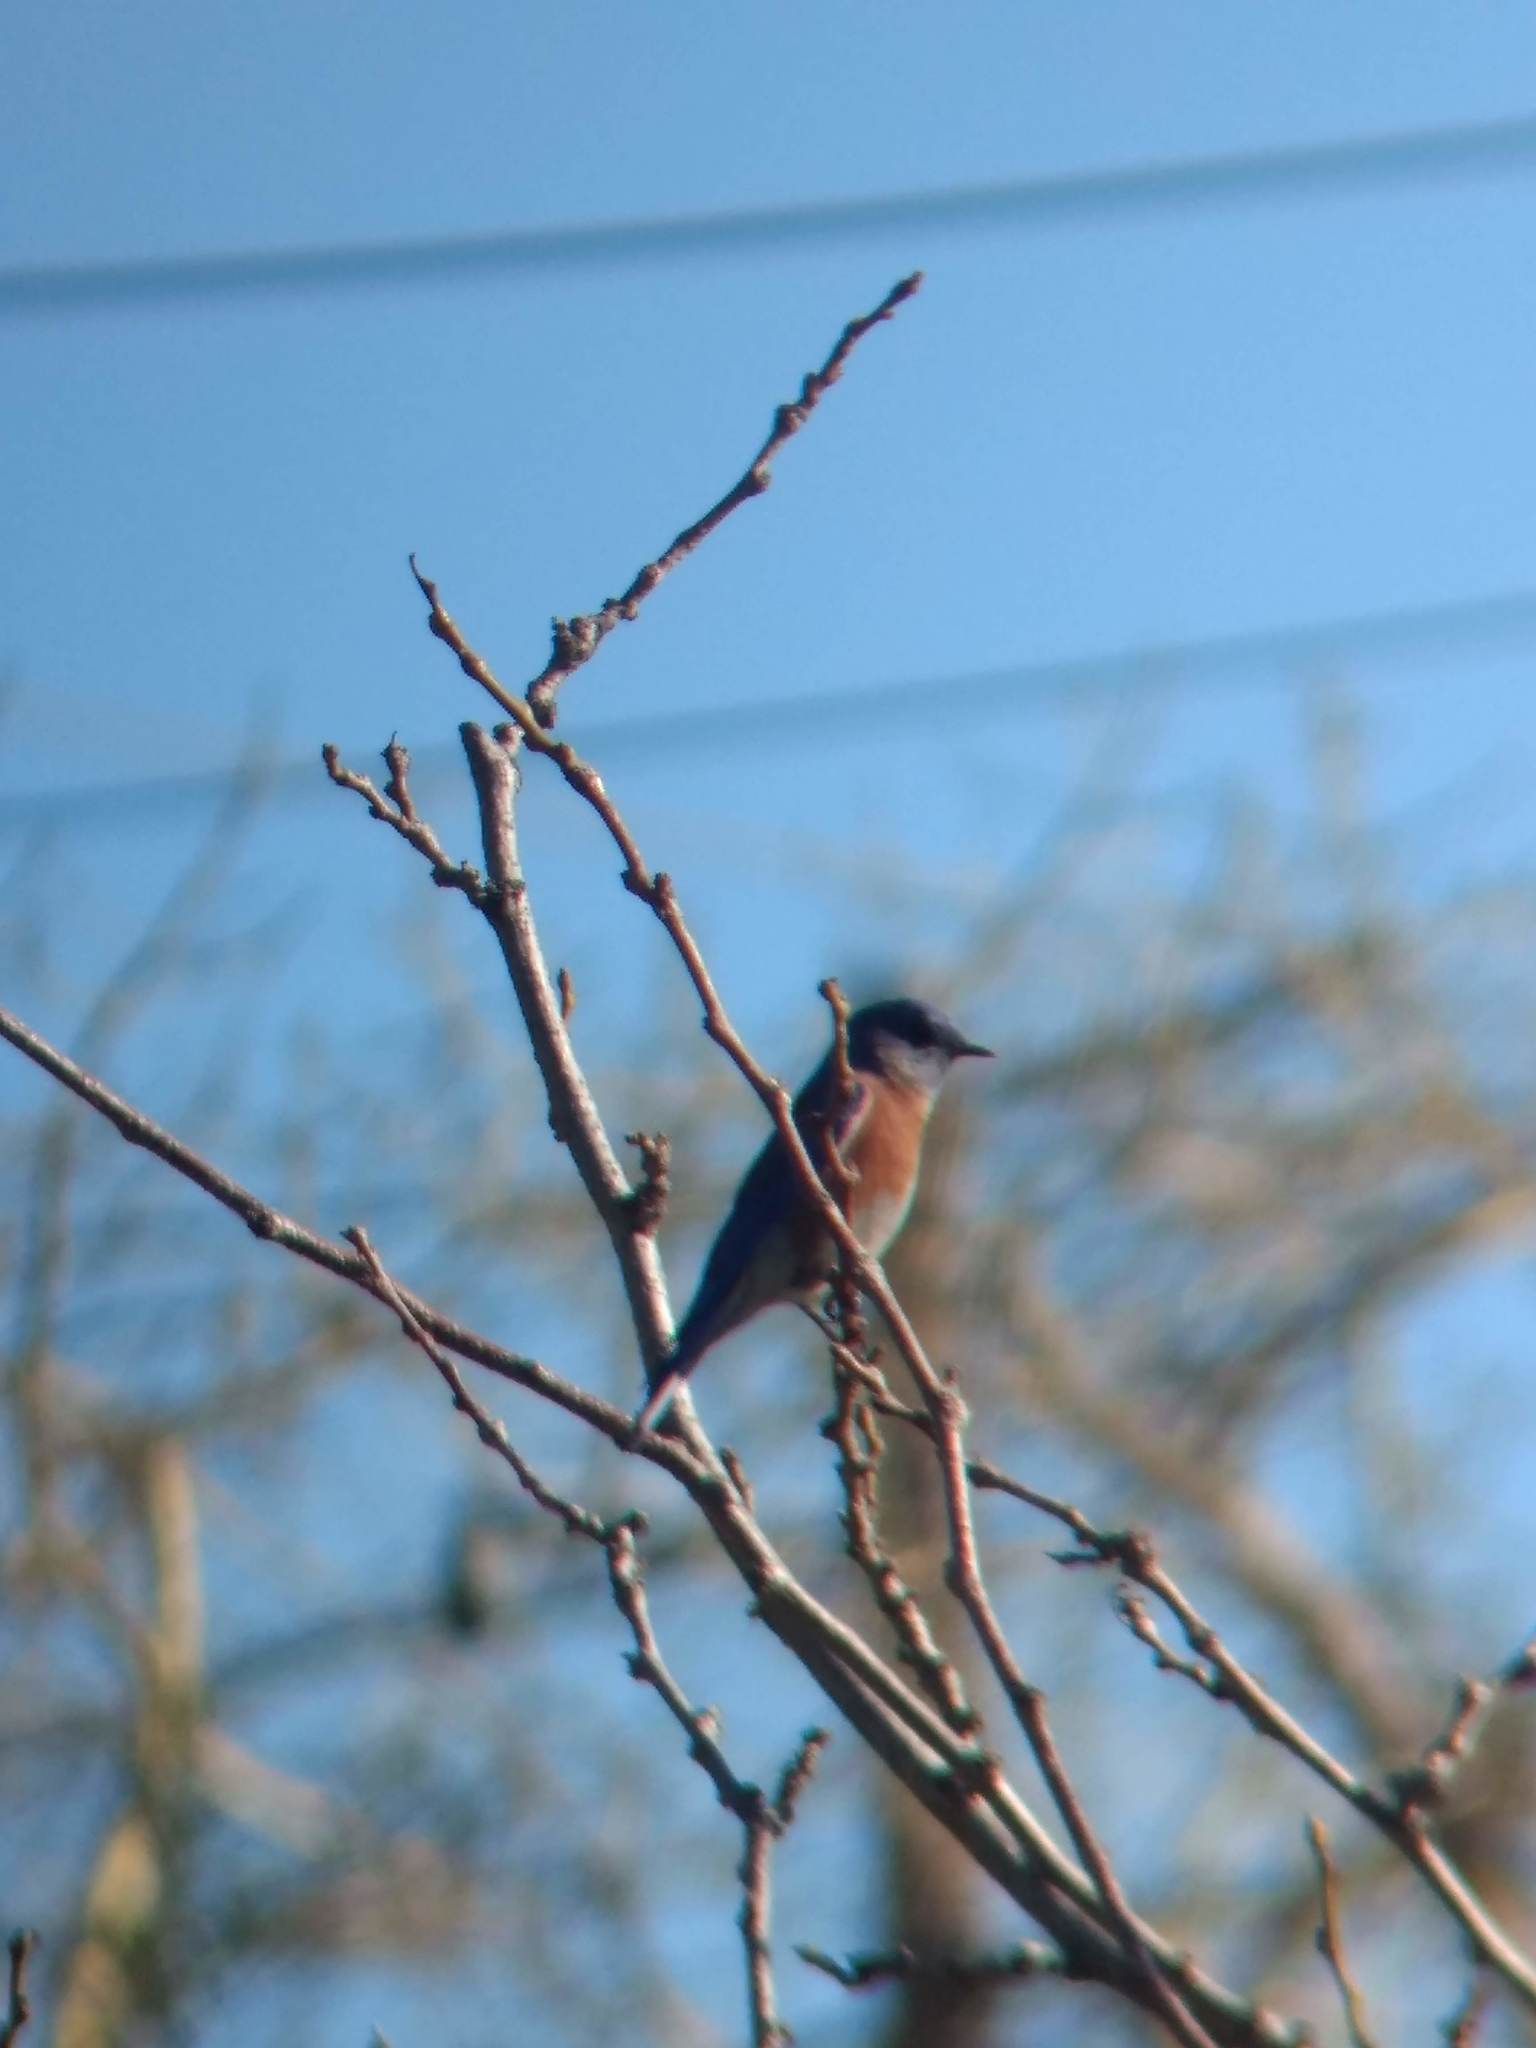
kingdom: Animalia
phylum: Chordata
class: Aves
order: Passeriformes
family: Turdidae
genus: Sialia
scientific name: Sialia mexicana
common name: Western bluebird
